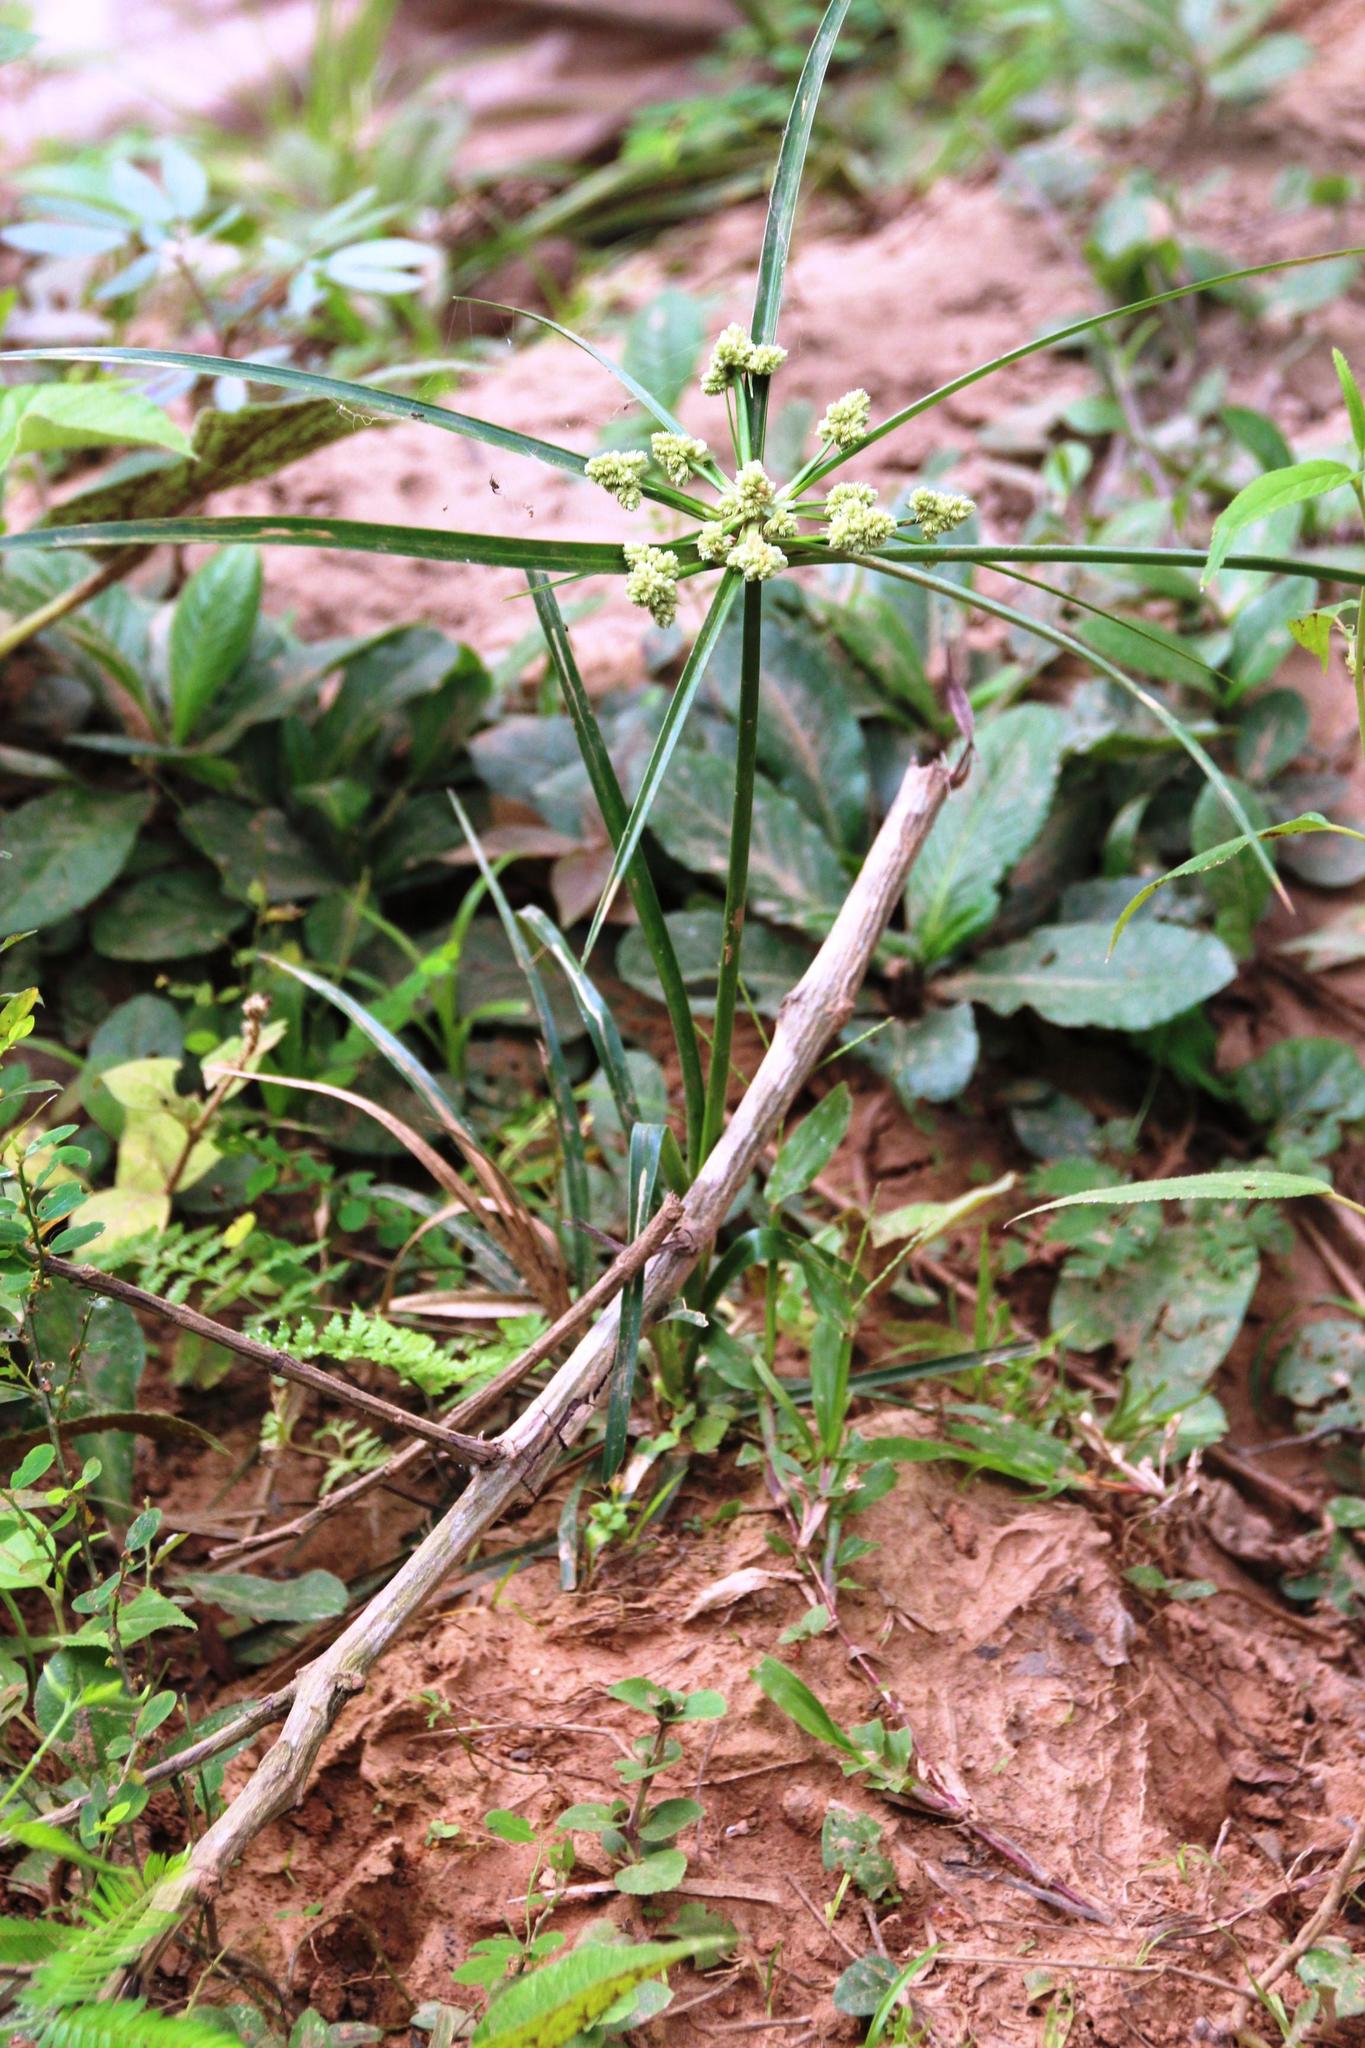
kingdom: Plantae
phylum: Tracheophyta
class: Liliopsida
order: Poales
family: Cyperaceae
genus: Cyperus
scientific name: Cyperus luzulae
